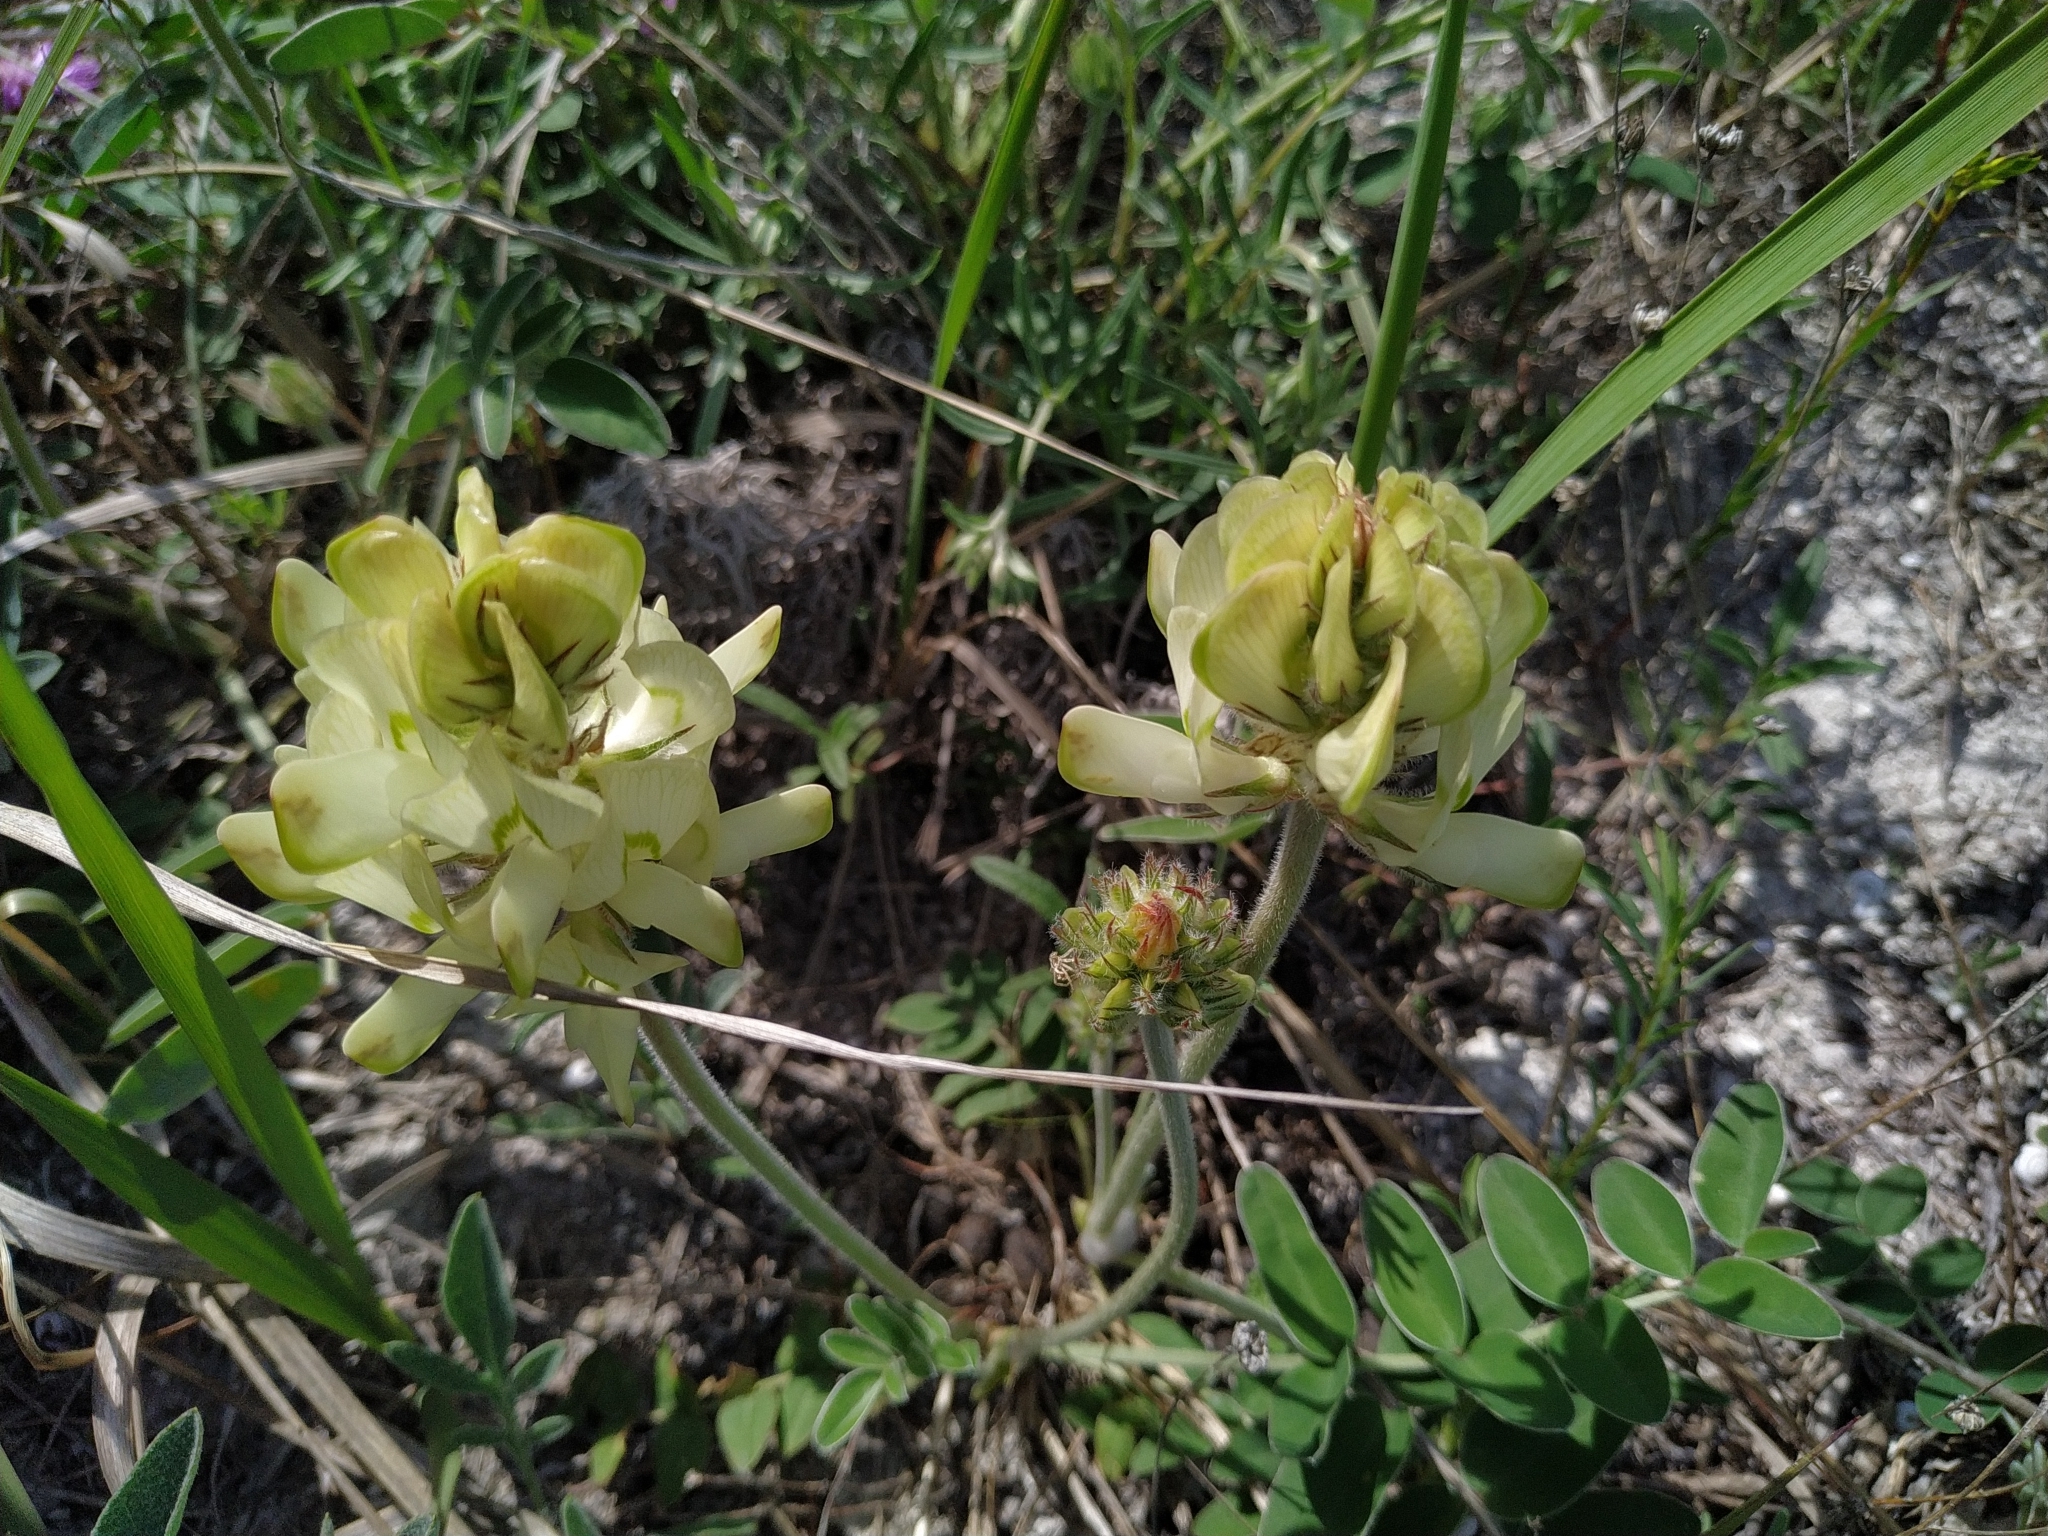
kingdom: Plantae
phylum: Tracheophyta
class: Magnoliopsida
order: Fabales
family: Fabaceae
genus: Hedysarum
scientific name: Hedysarum grandiflorum
